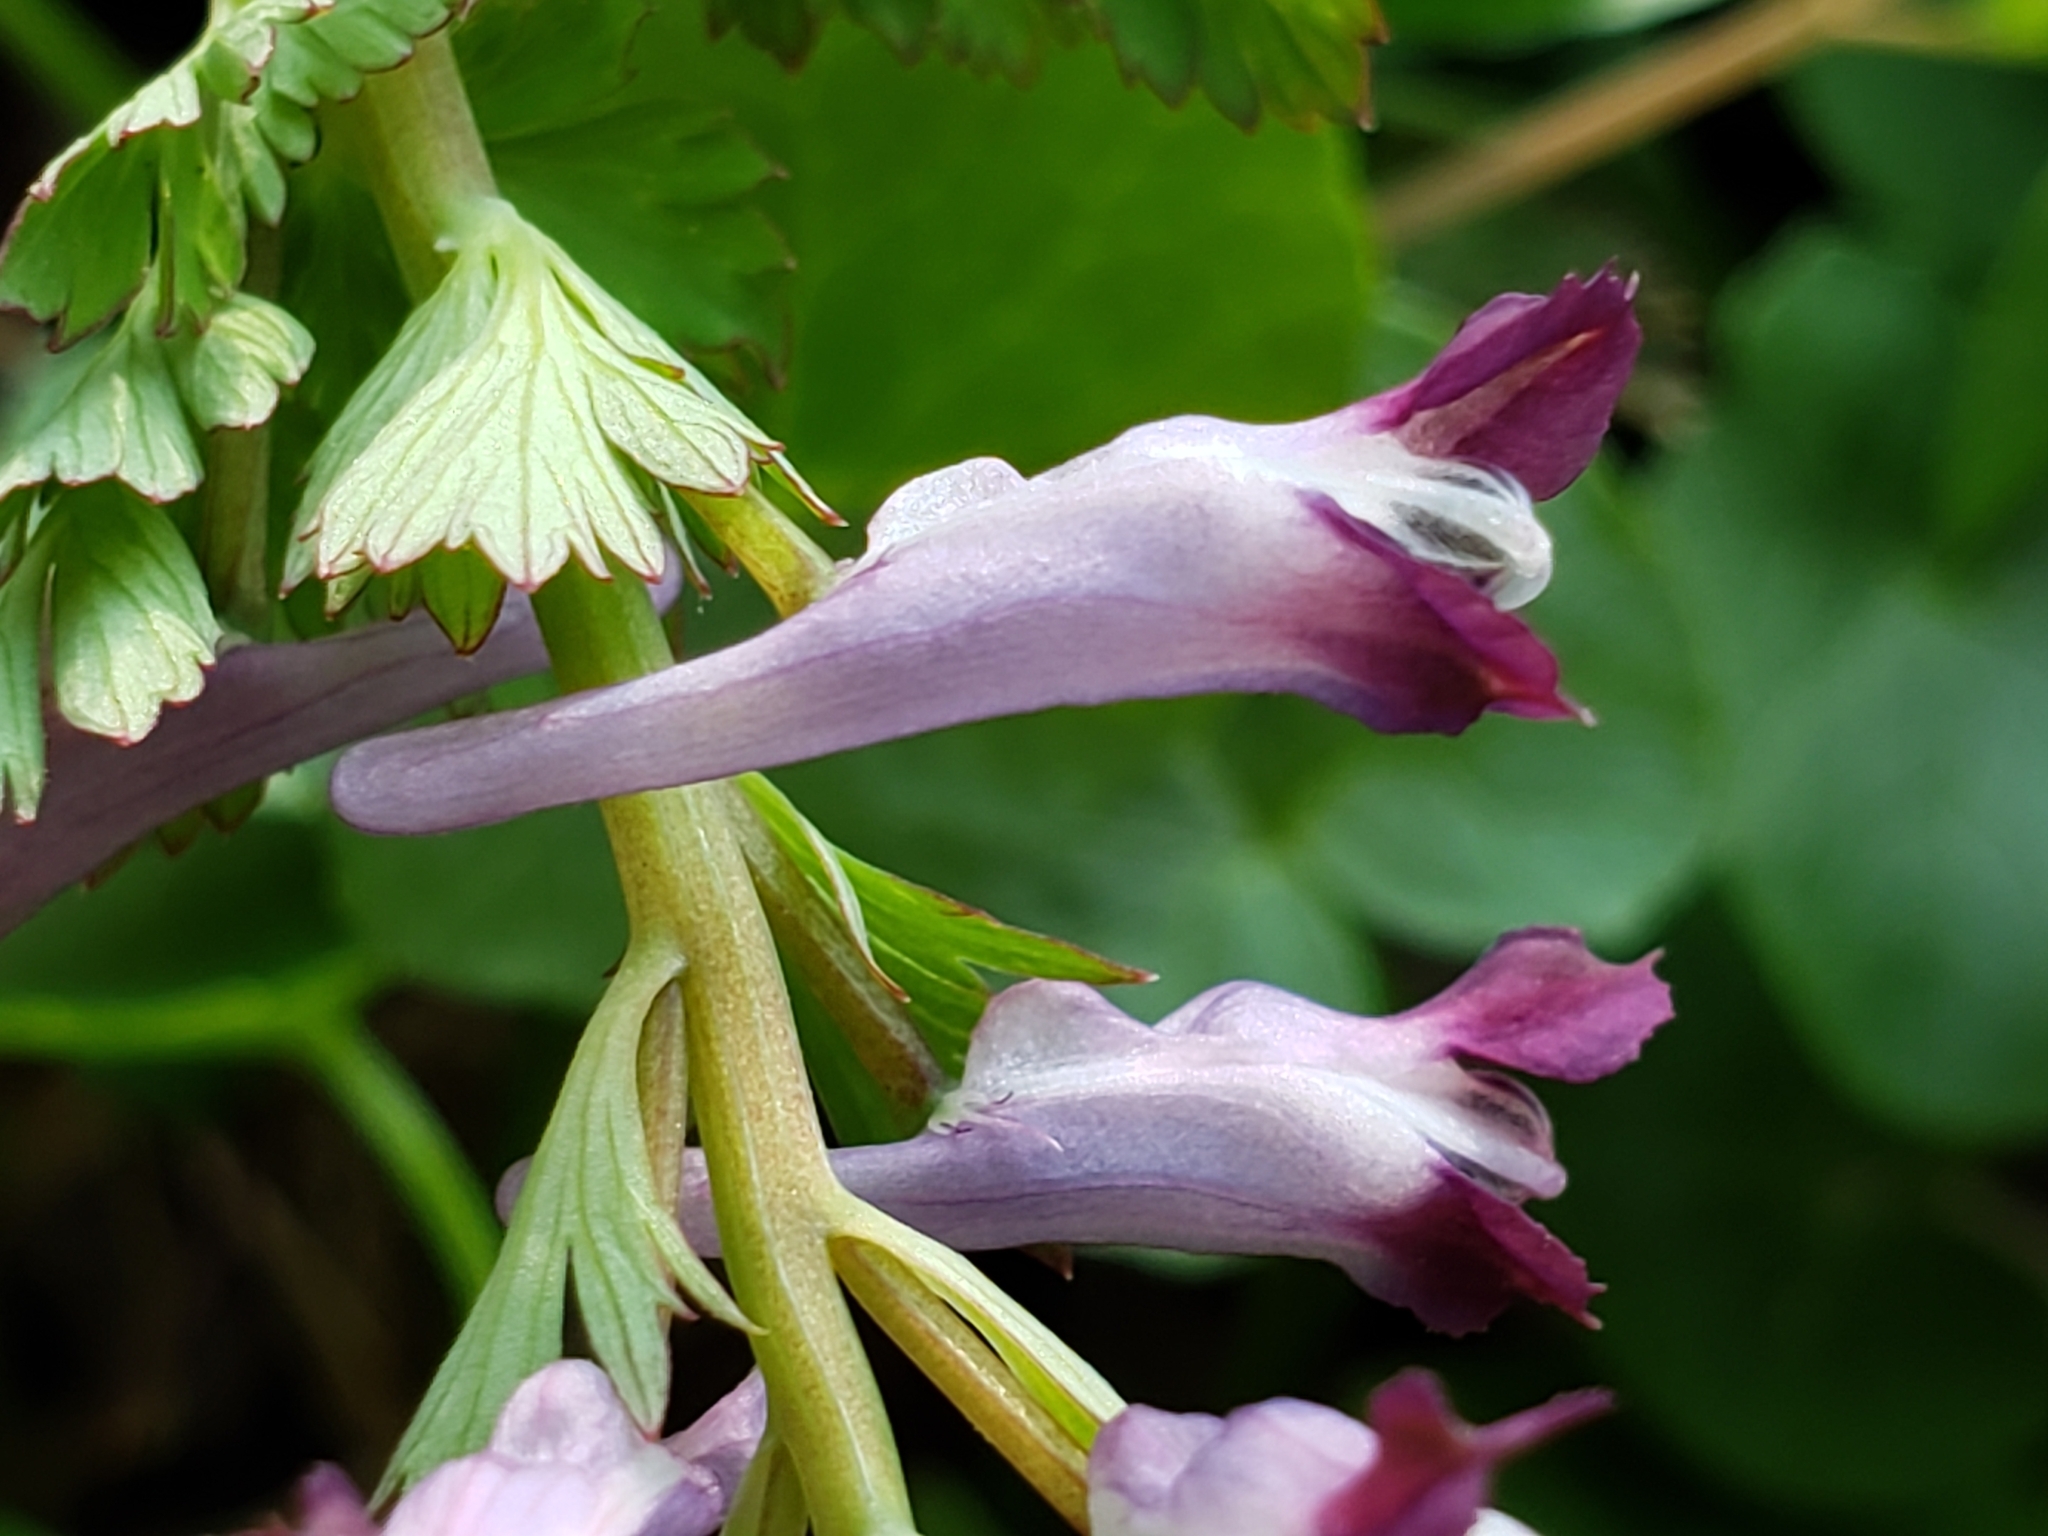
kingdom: Plantae
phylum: Tracheophyta
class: Magnoliopsida
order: Ranunculales
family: Papaveraceae
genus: Corydalis
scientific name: Corydalis incisa
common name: Incised fumewort
